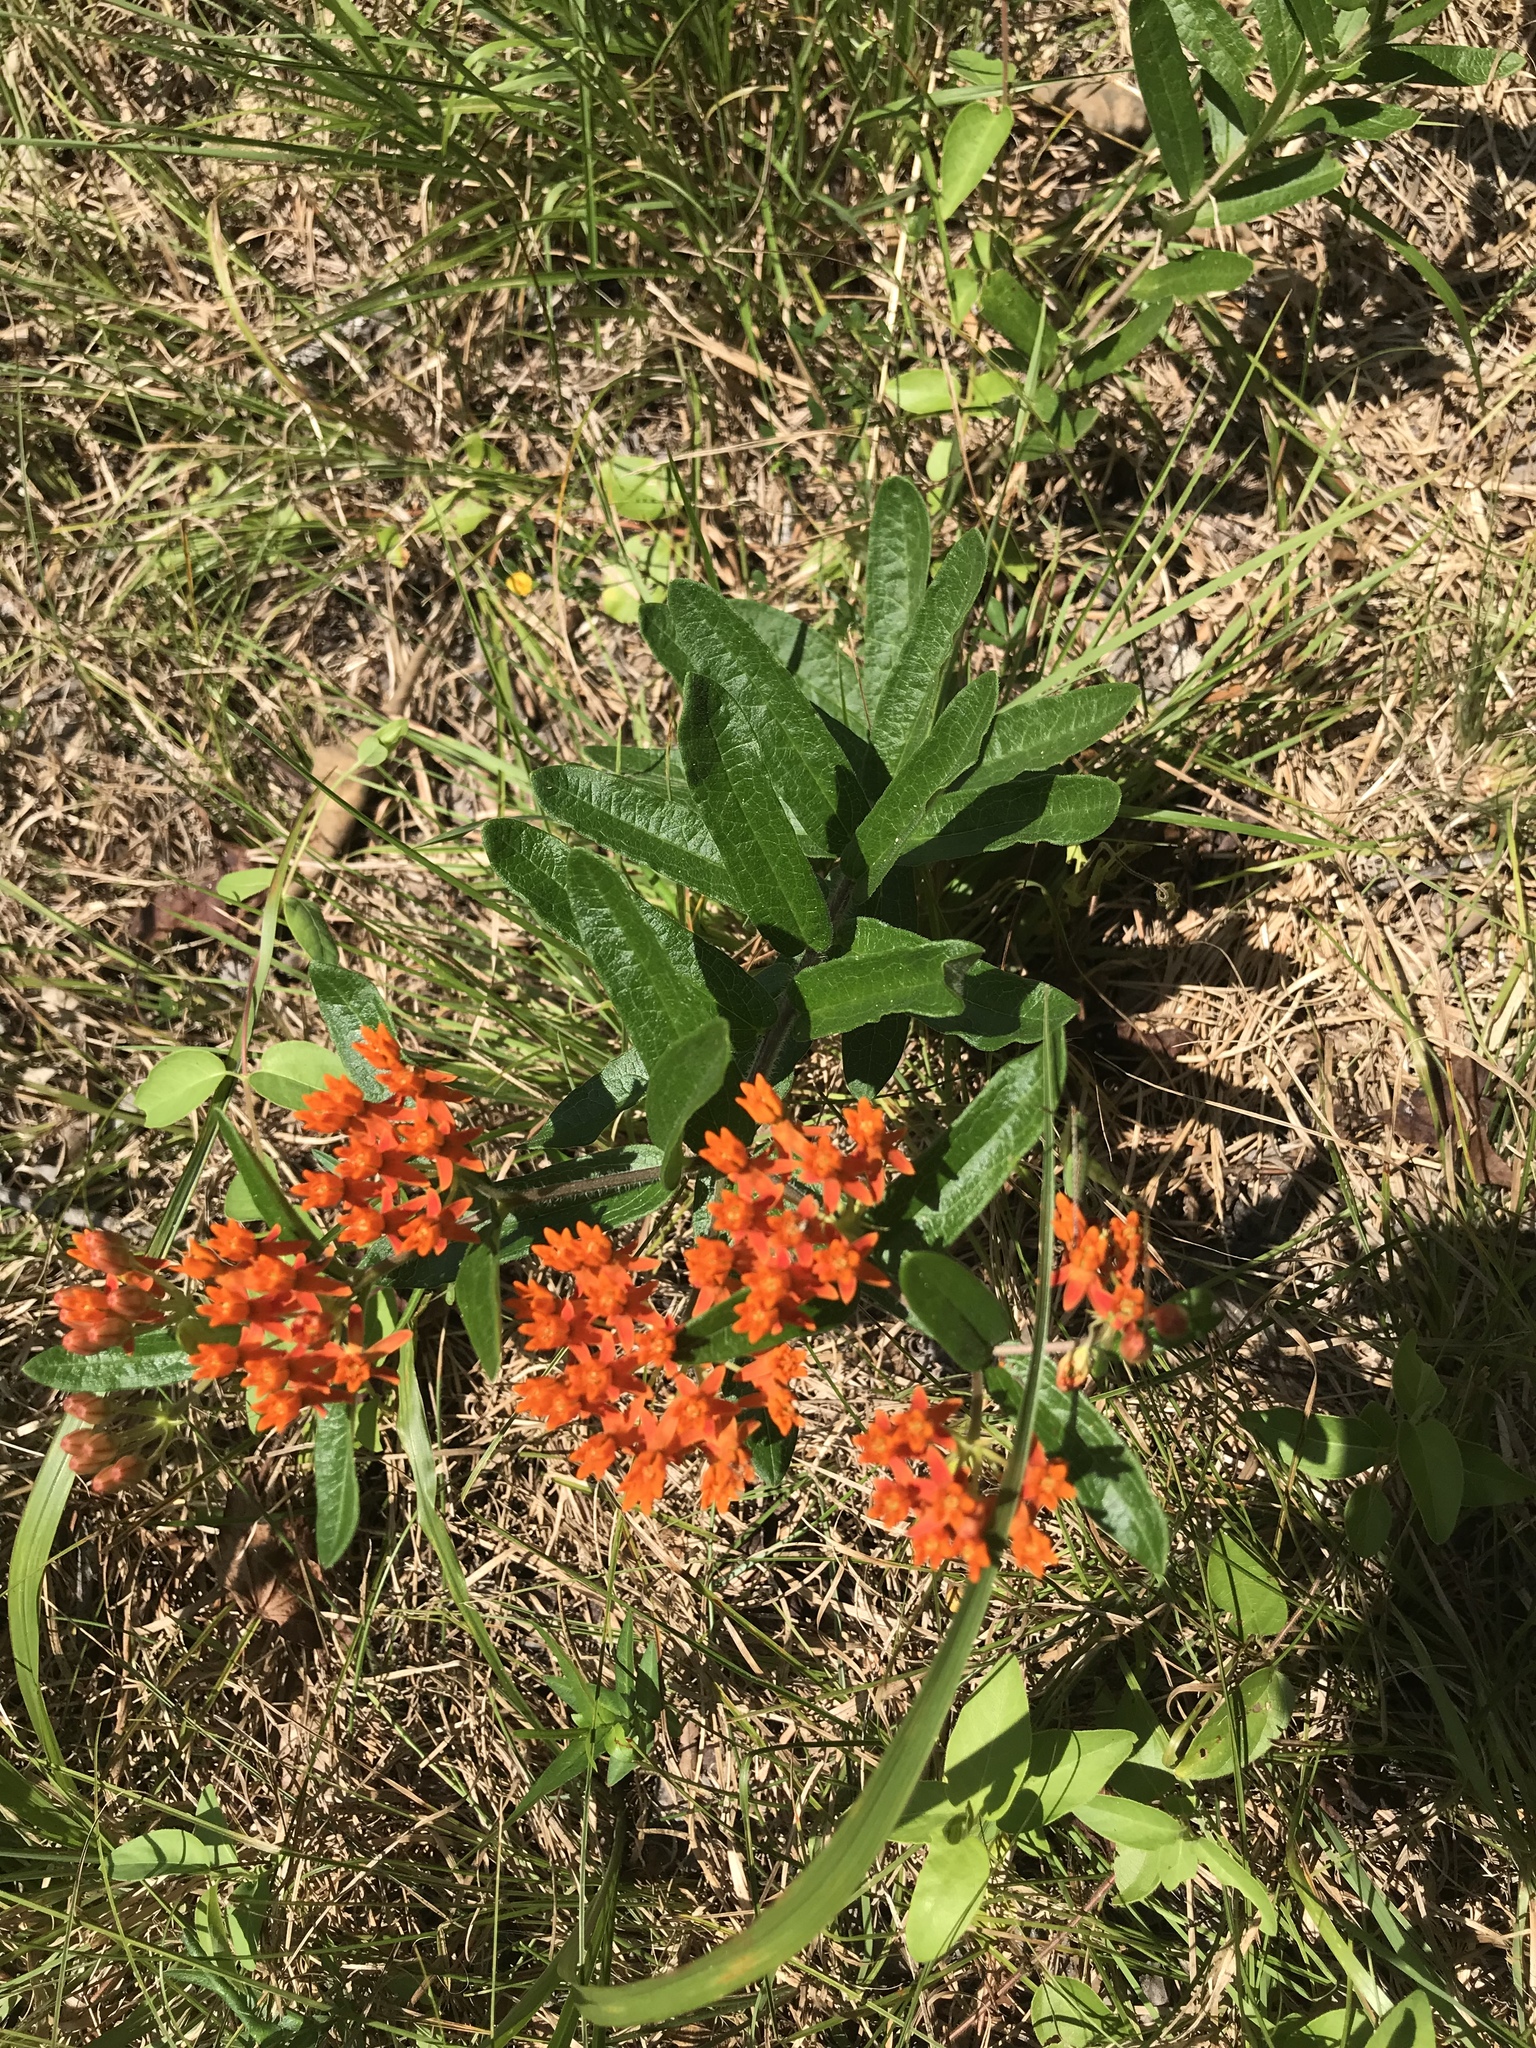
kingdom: Plantae
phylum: Tracheophyta
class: Magnoliopsida
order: Gentianales
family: Apocynaceae
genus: Asclepias
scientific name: Asclepias tuberosa
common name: Butterfly milkweed
